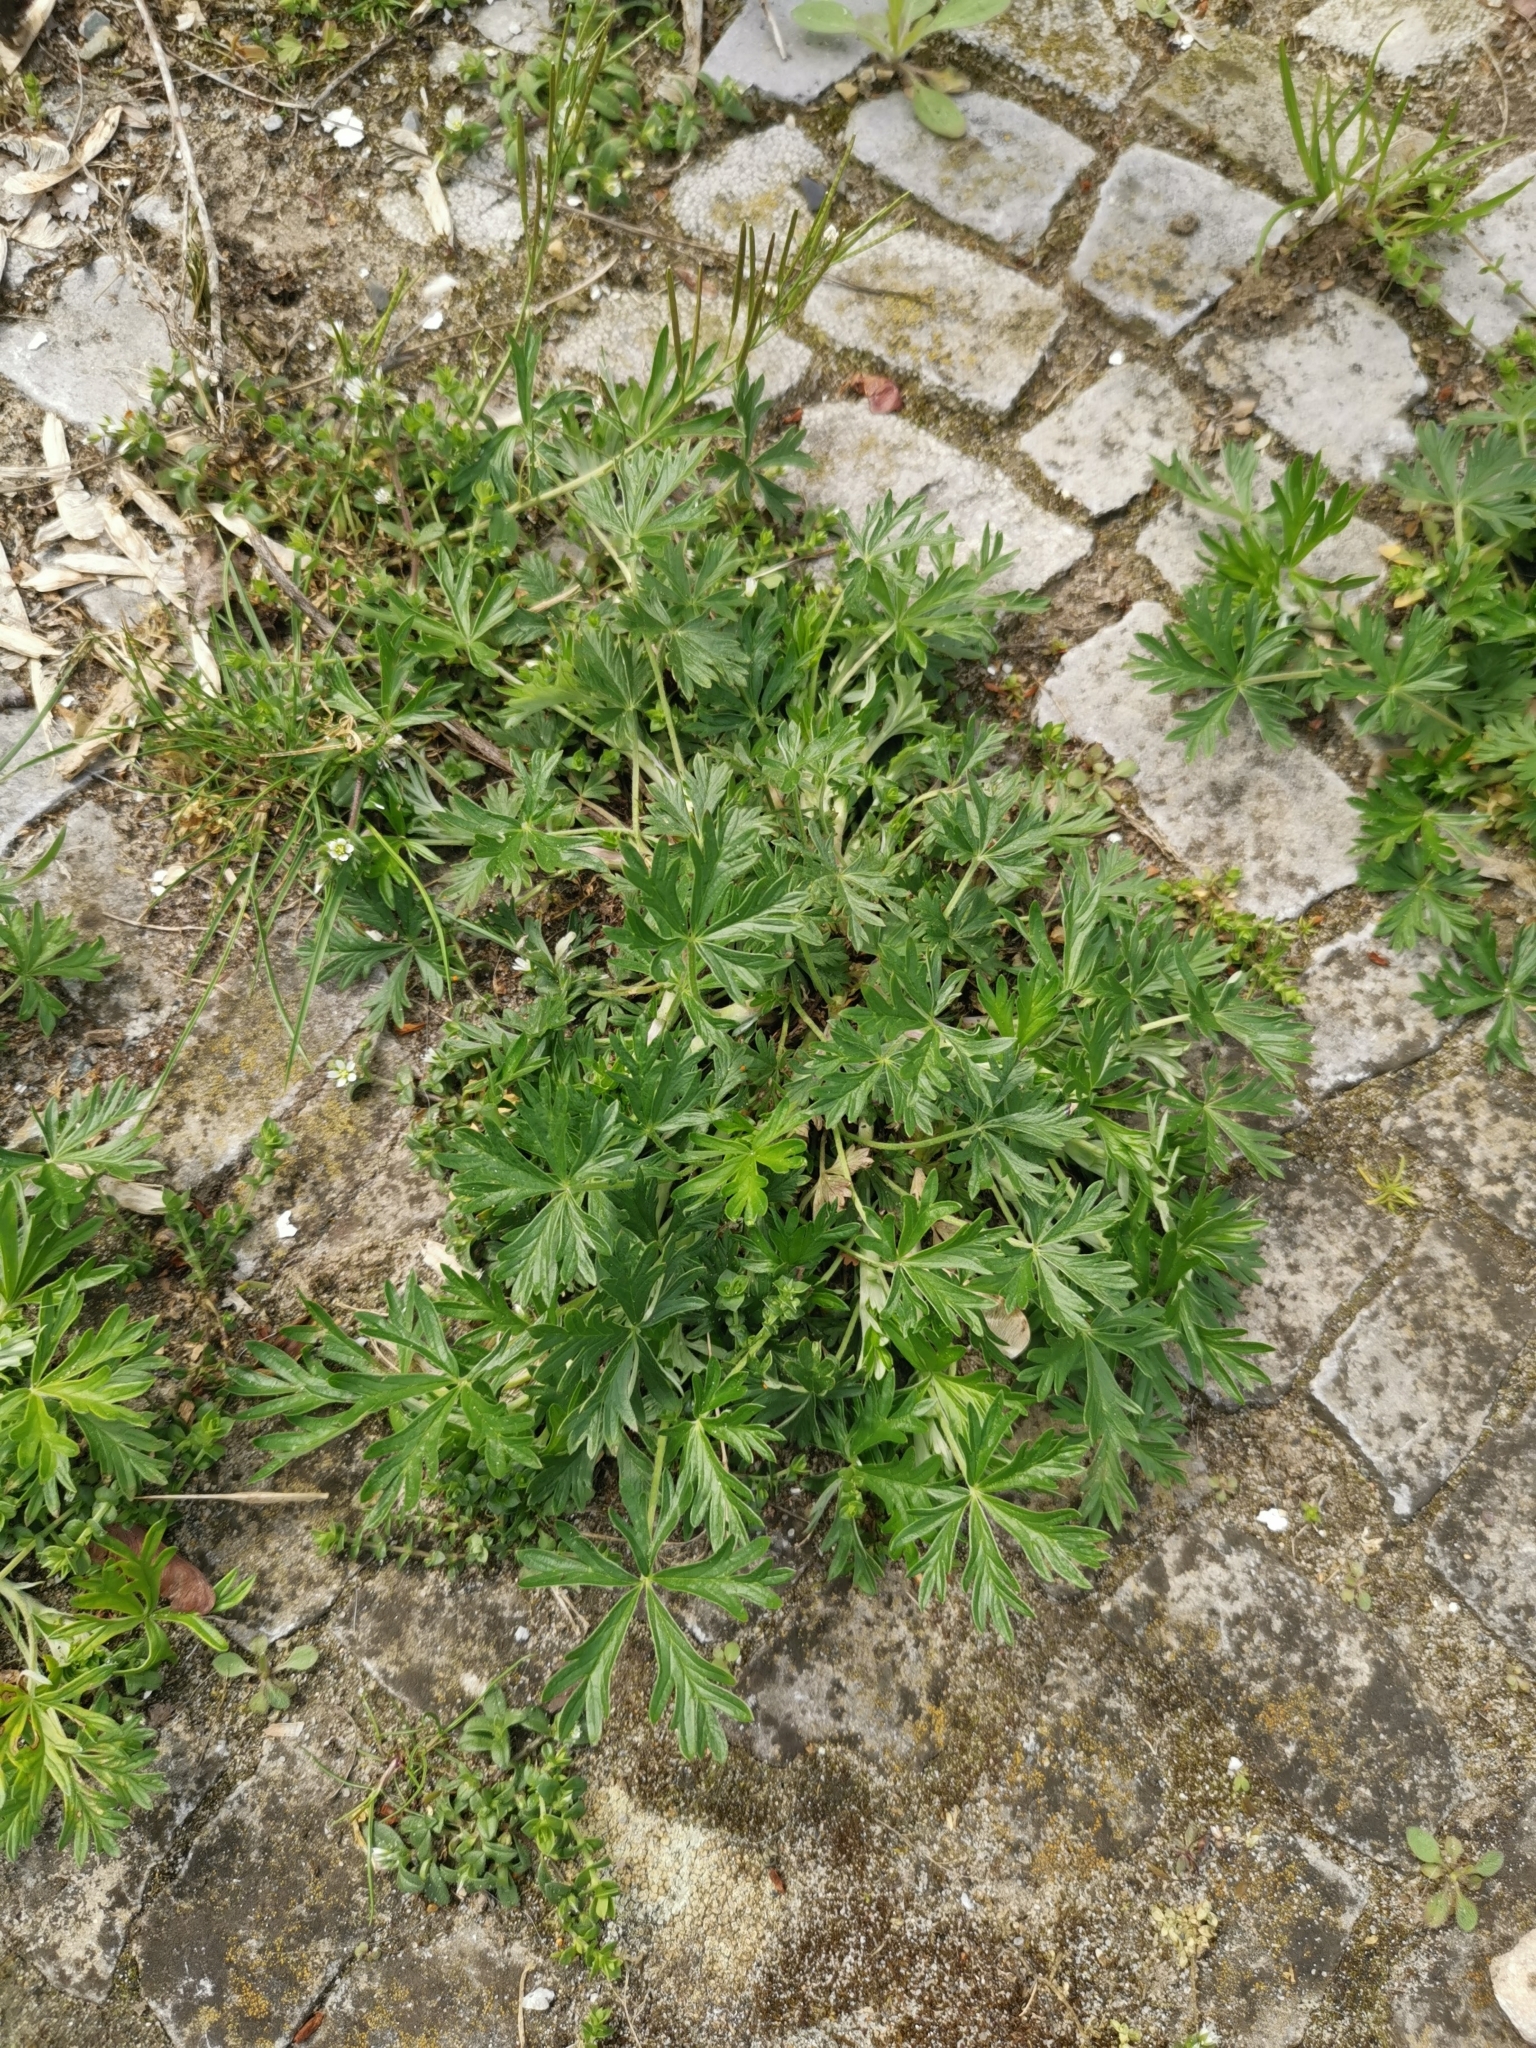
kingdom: Plantae
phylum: Tracheophyta
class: Magnoliopsida
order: Rosales
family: Rosaceae
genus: Potentilla
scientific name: Potentilla argentea
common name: Hoary cinquefoil
